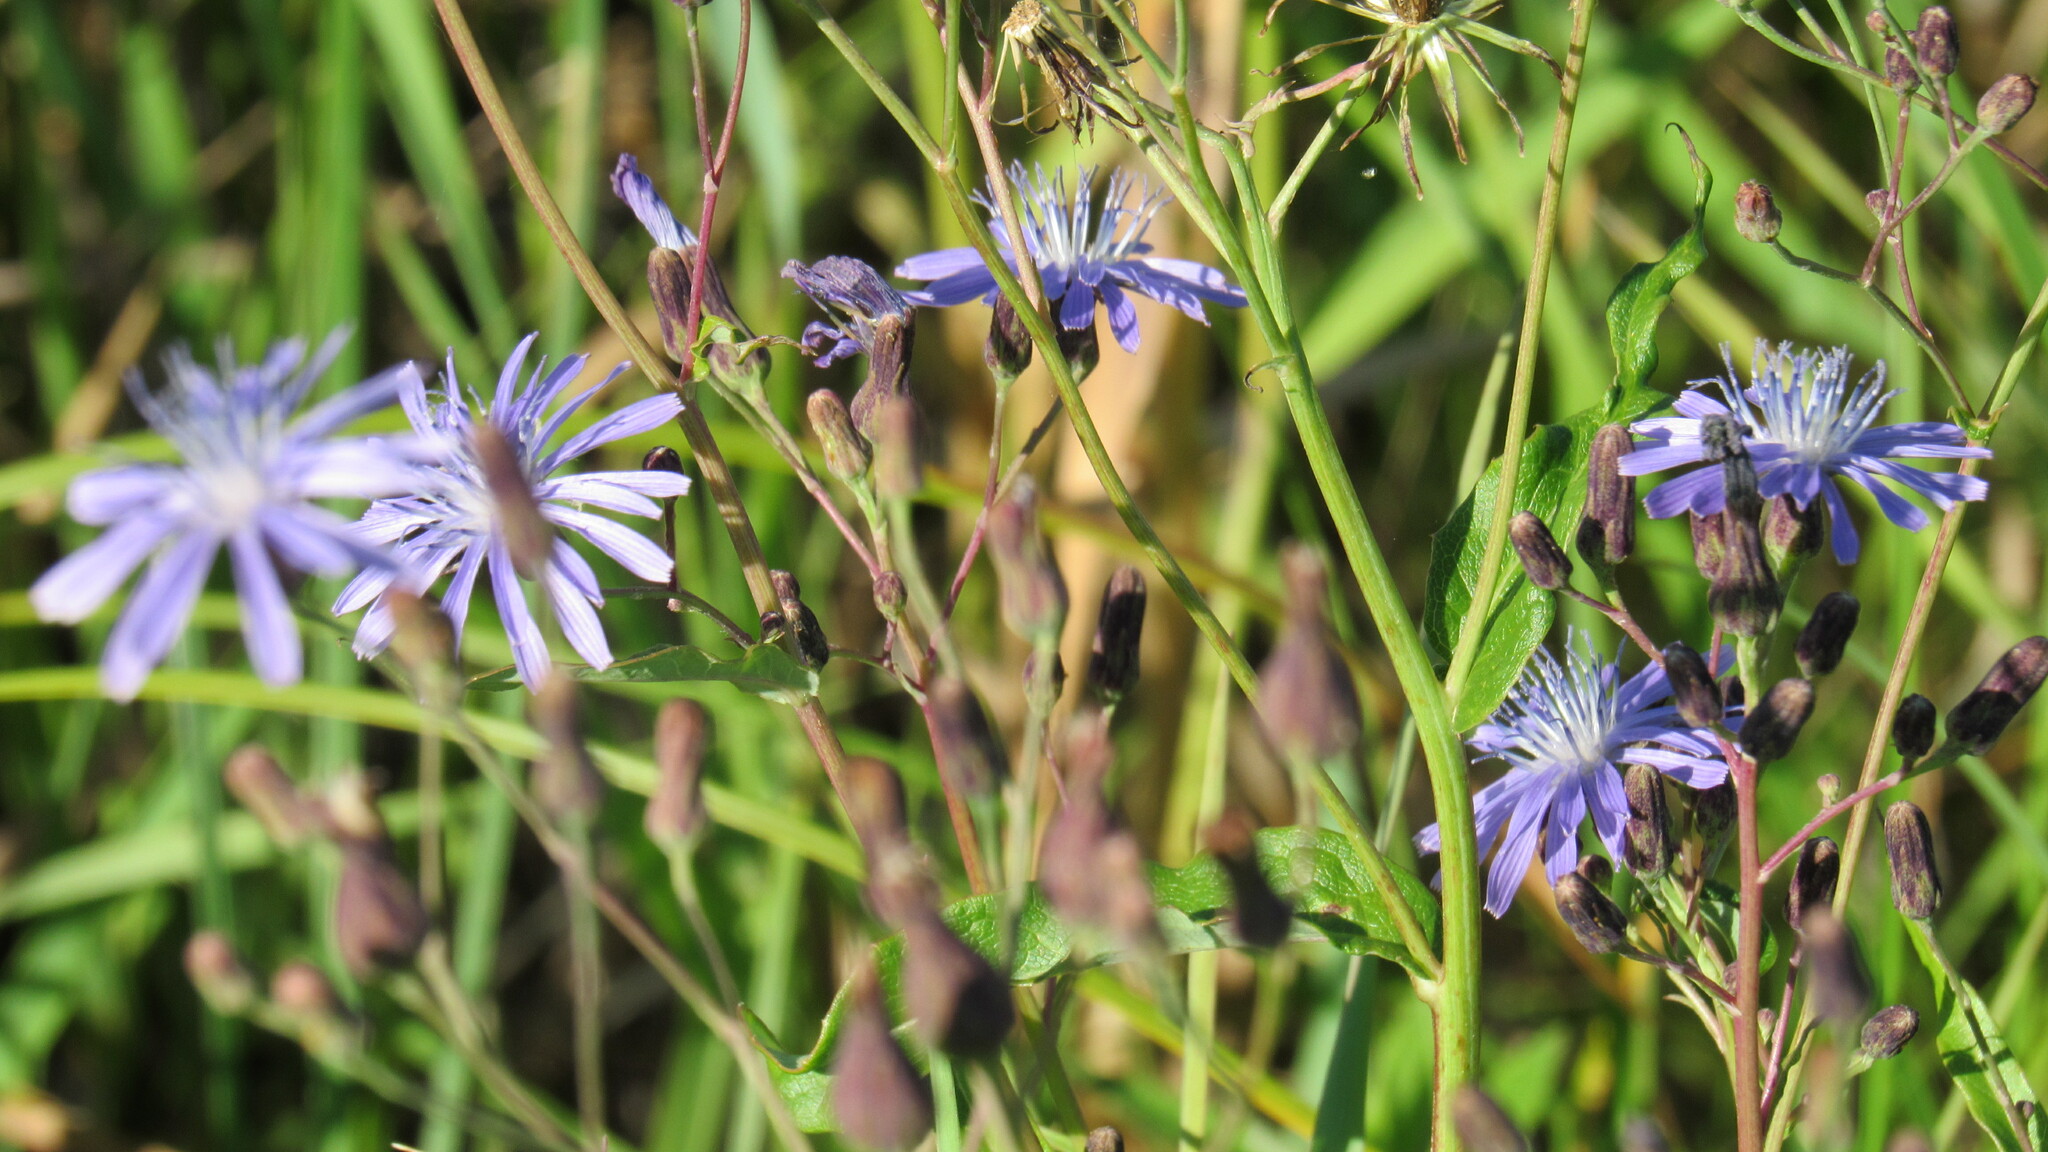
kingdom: Plantae
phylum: Tracheophyta
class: Magnoliopsida
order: Asterales
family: Asteraceae
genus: Lactuca
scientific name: Lactuca sibirica
